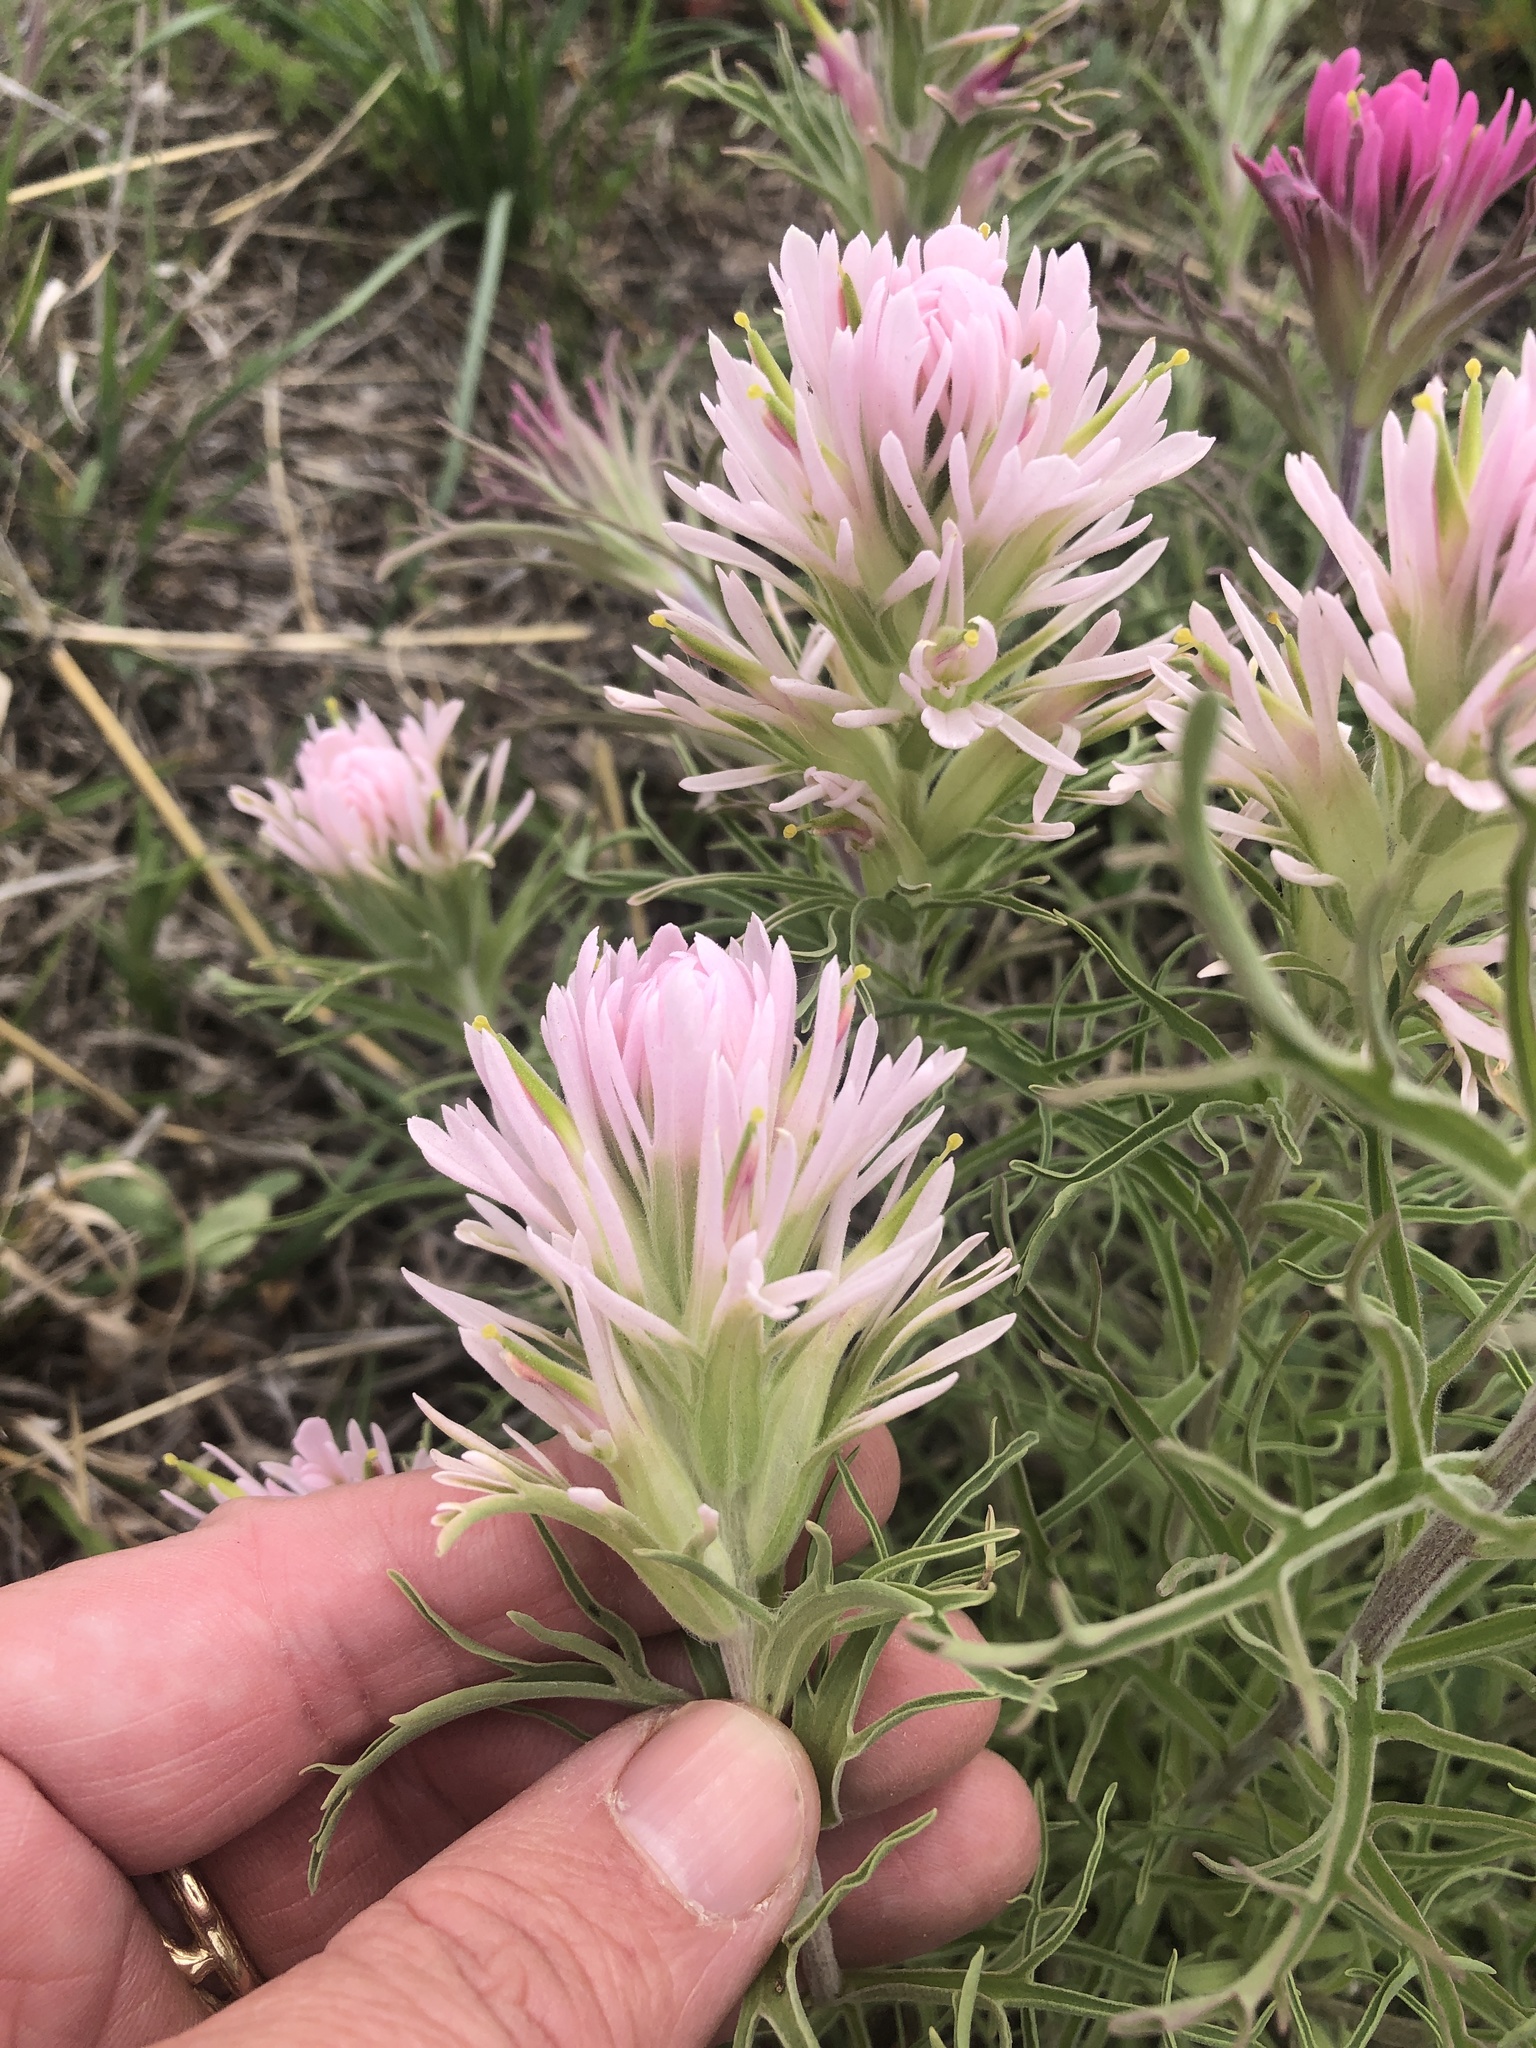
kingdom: Plantae
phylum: Tracheophyta
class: Magnoliopsida
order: Lamiales
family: Orobanchaceae
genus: Castilleja
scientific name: Castilleja purpurea
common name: Plains paintbrush
